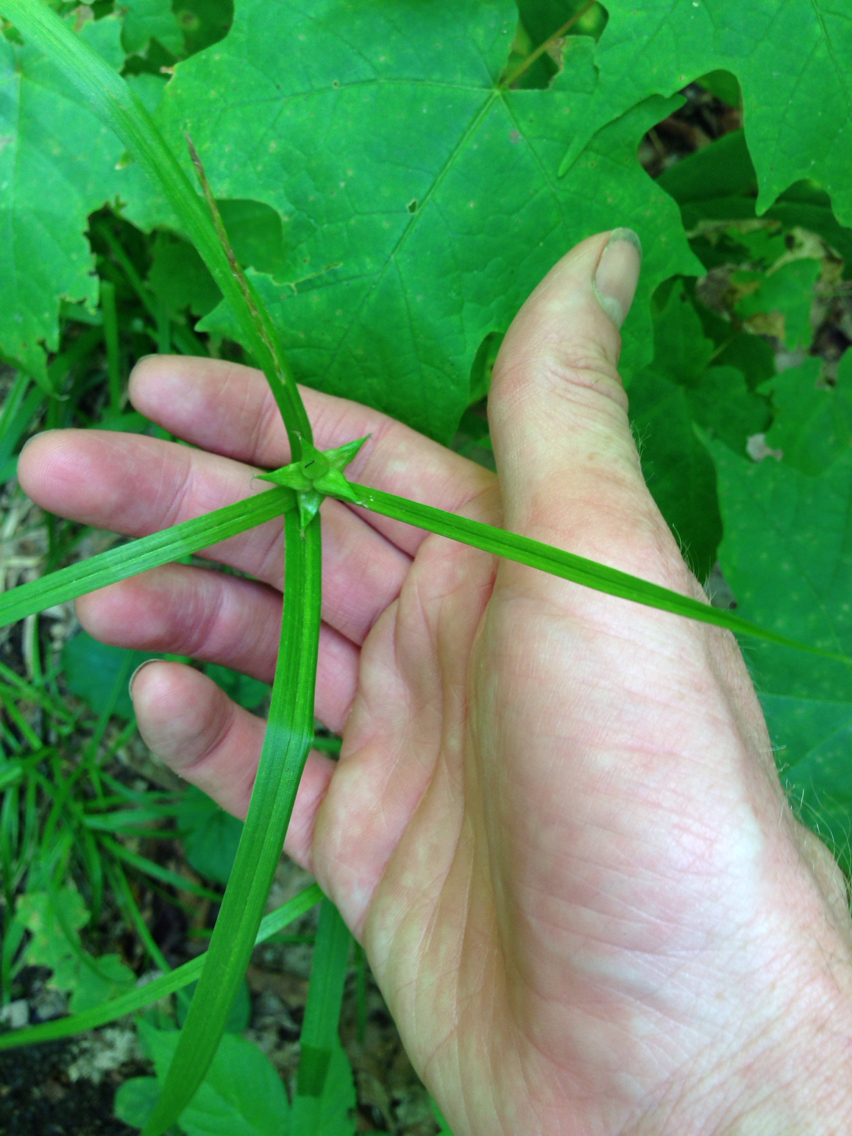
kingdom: Plantae
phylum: Tracheophyta
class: Liliopsida
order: Poales
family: Cyperaceae
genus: Carex
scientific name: Carex intumescens
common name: Greater bladder sedge
